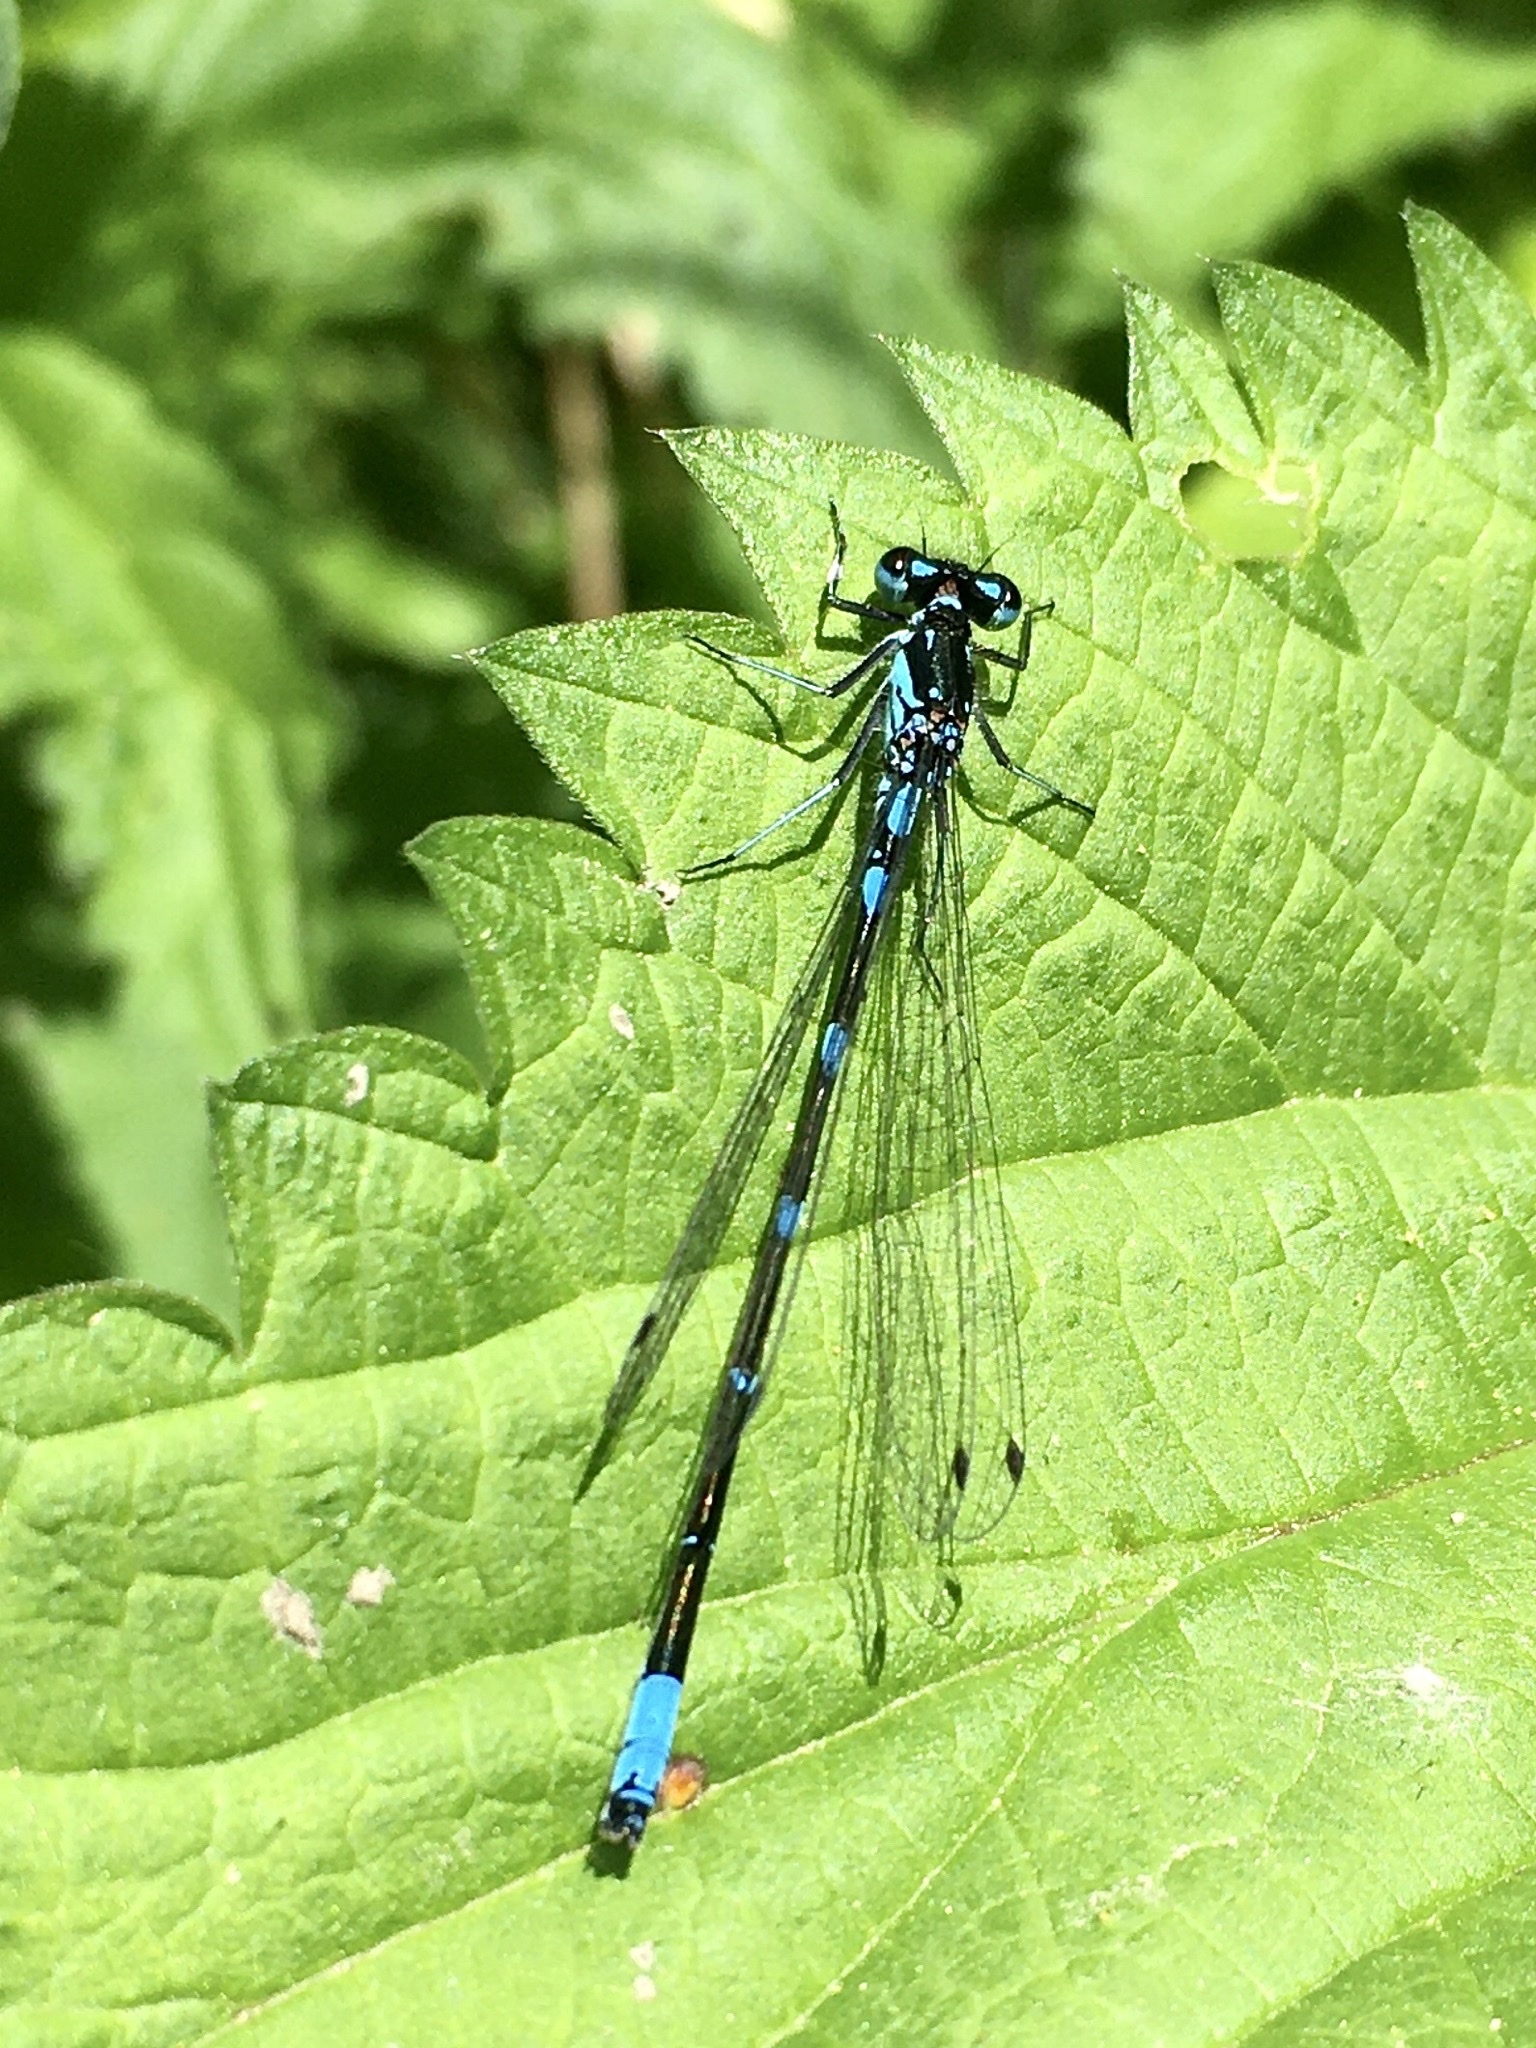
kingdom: Animalia
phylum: Arthropoda
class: Insecta
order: Odonata
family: Coenagrionidae
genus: Coenagrion
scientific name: Coenagrion pulchellum
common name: Variable bluet
